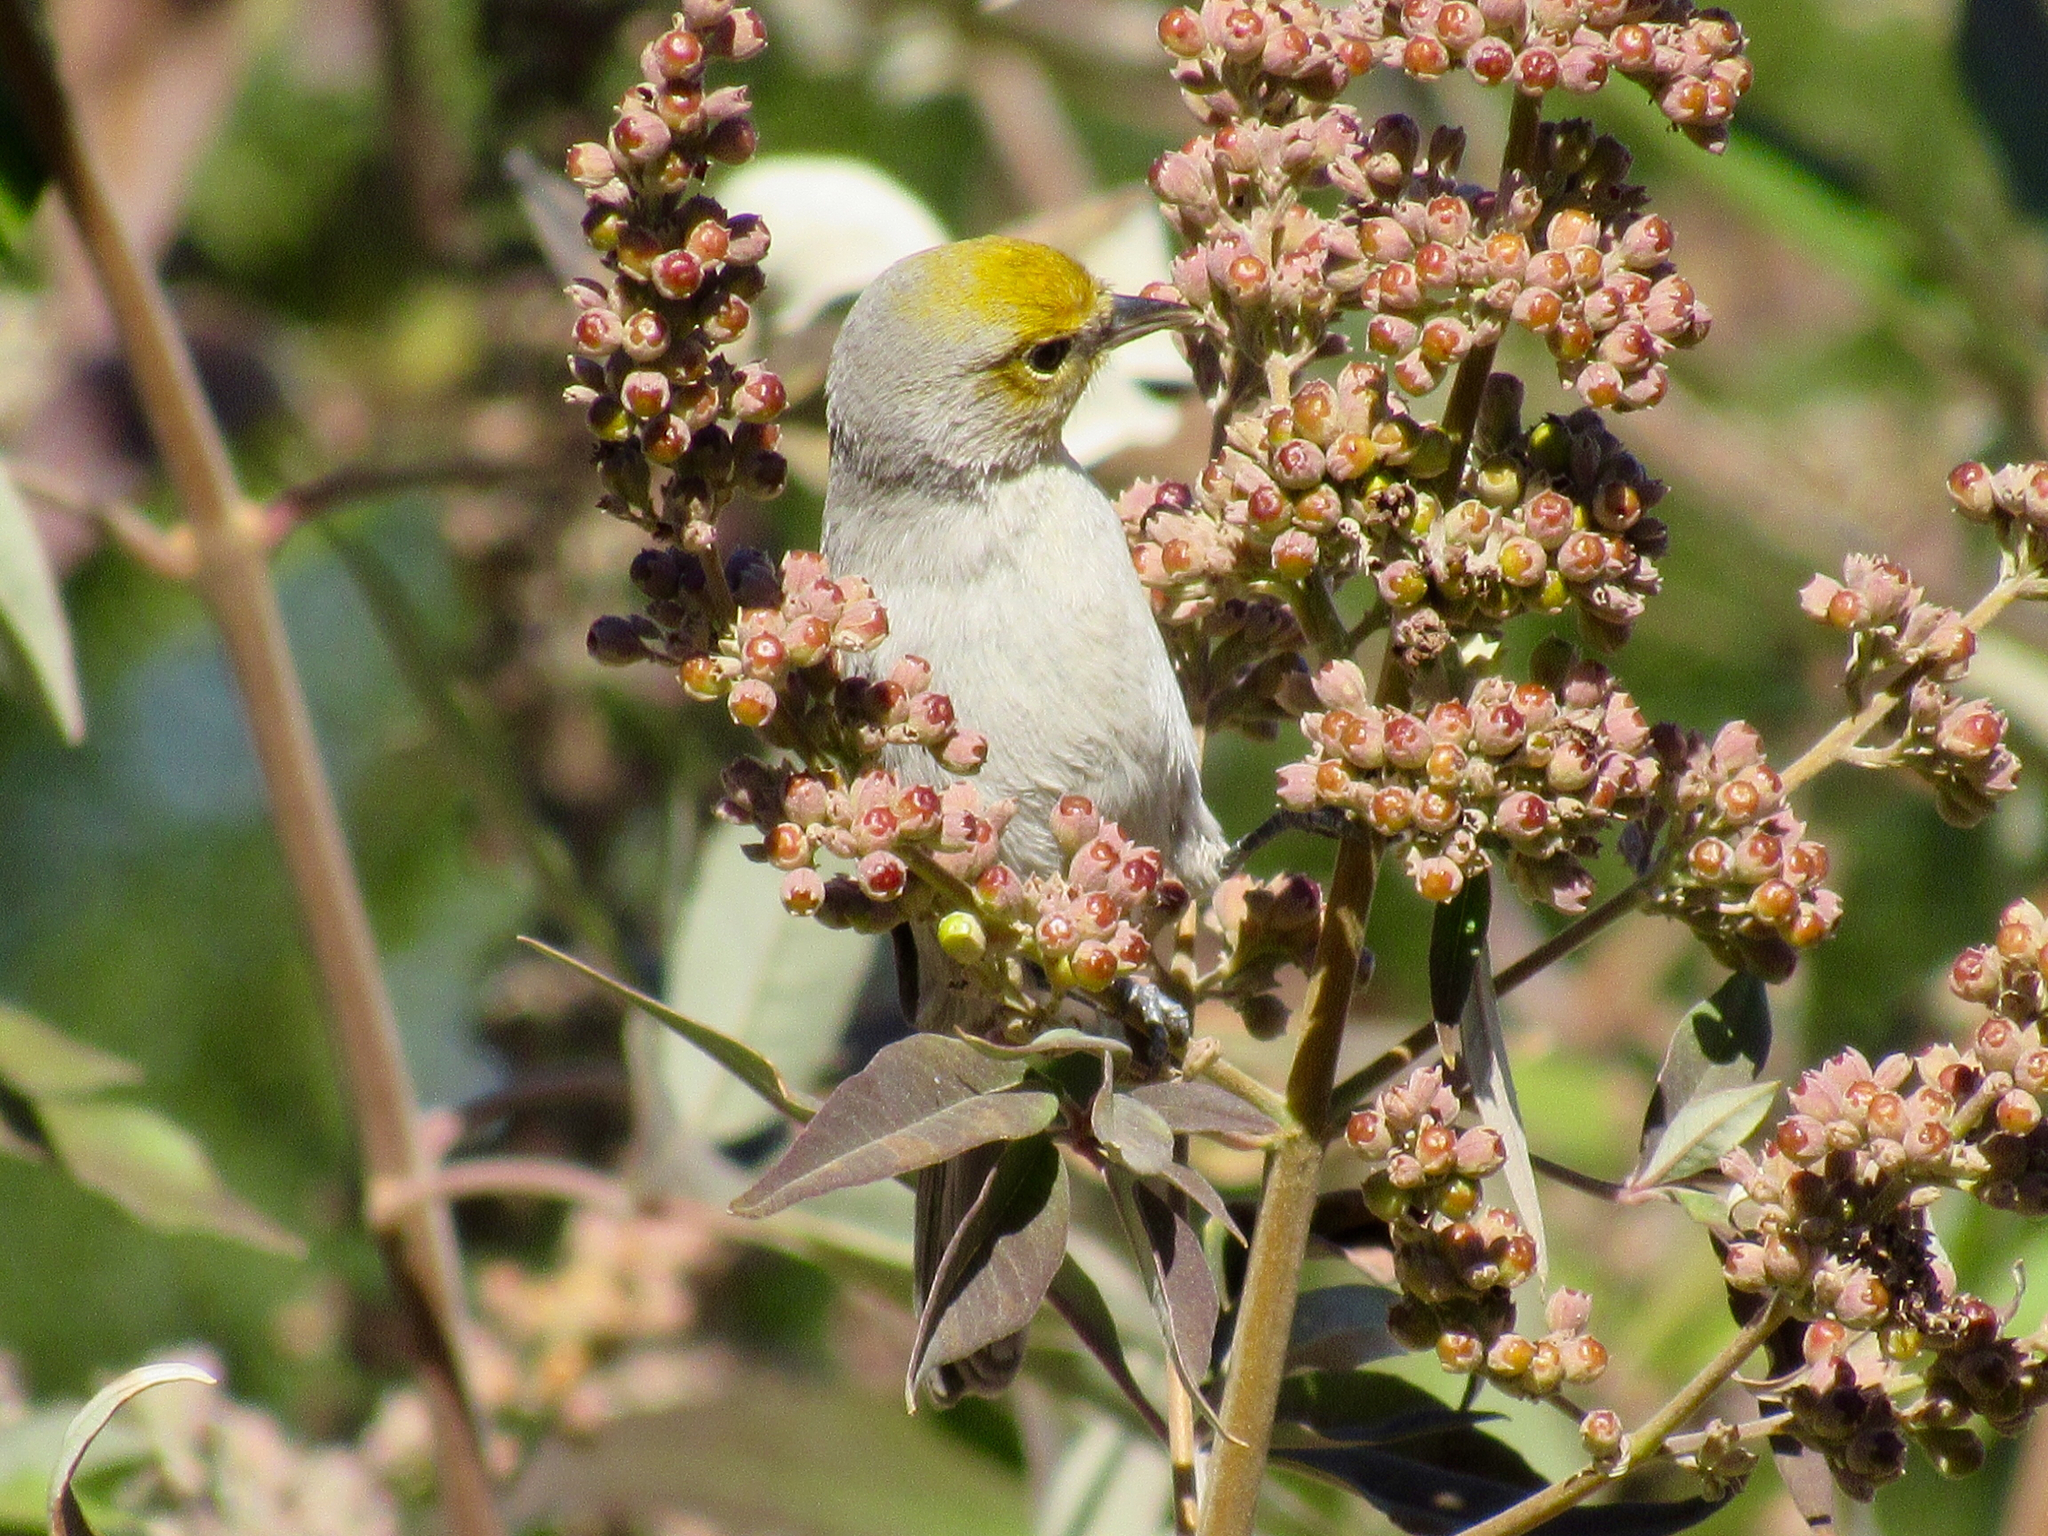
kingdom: Animalia
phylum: Chordata
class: Aves
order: Passeriformes
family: Remizidae
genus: Auriparus
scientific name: Auriparus flaviceps
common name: Verdin
